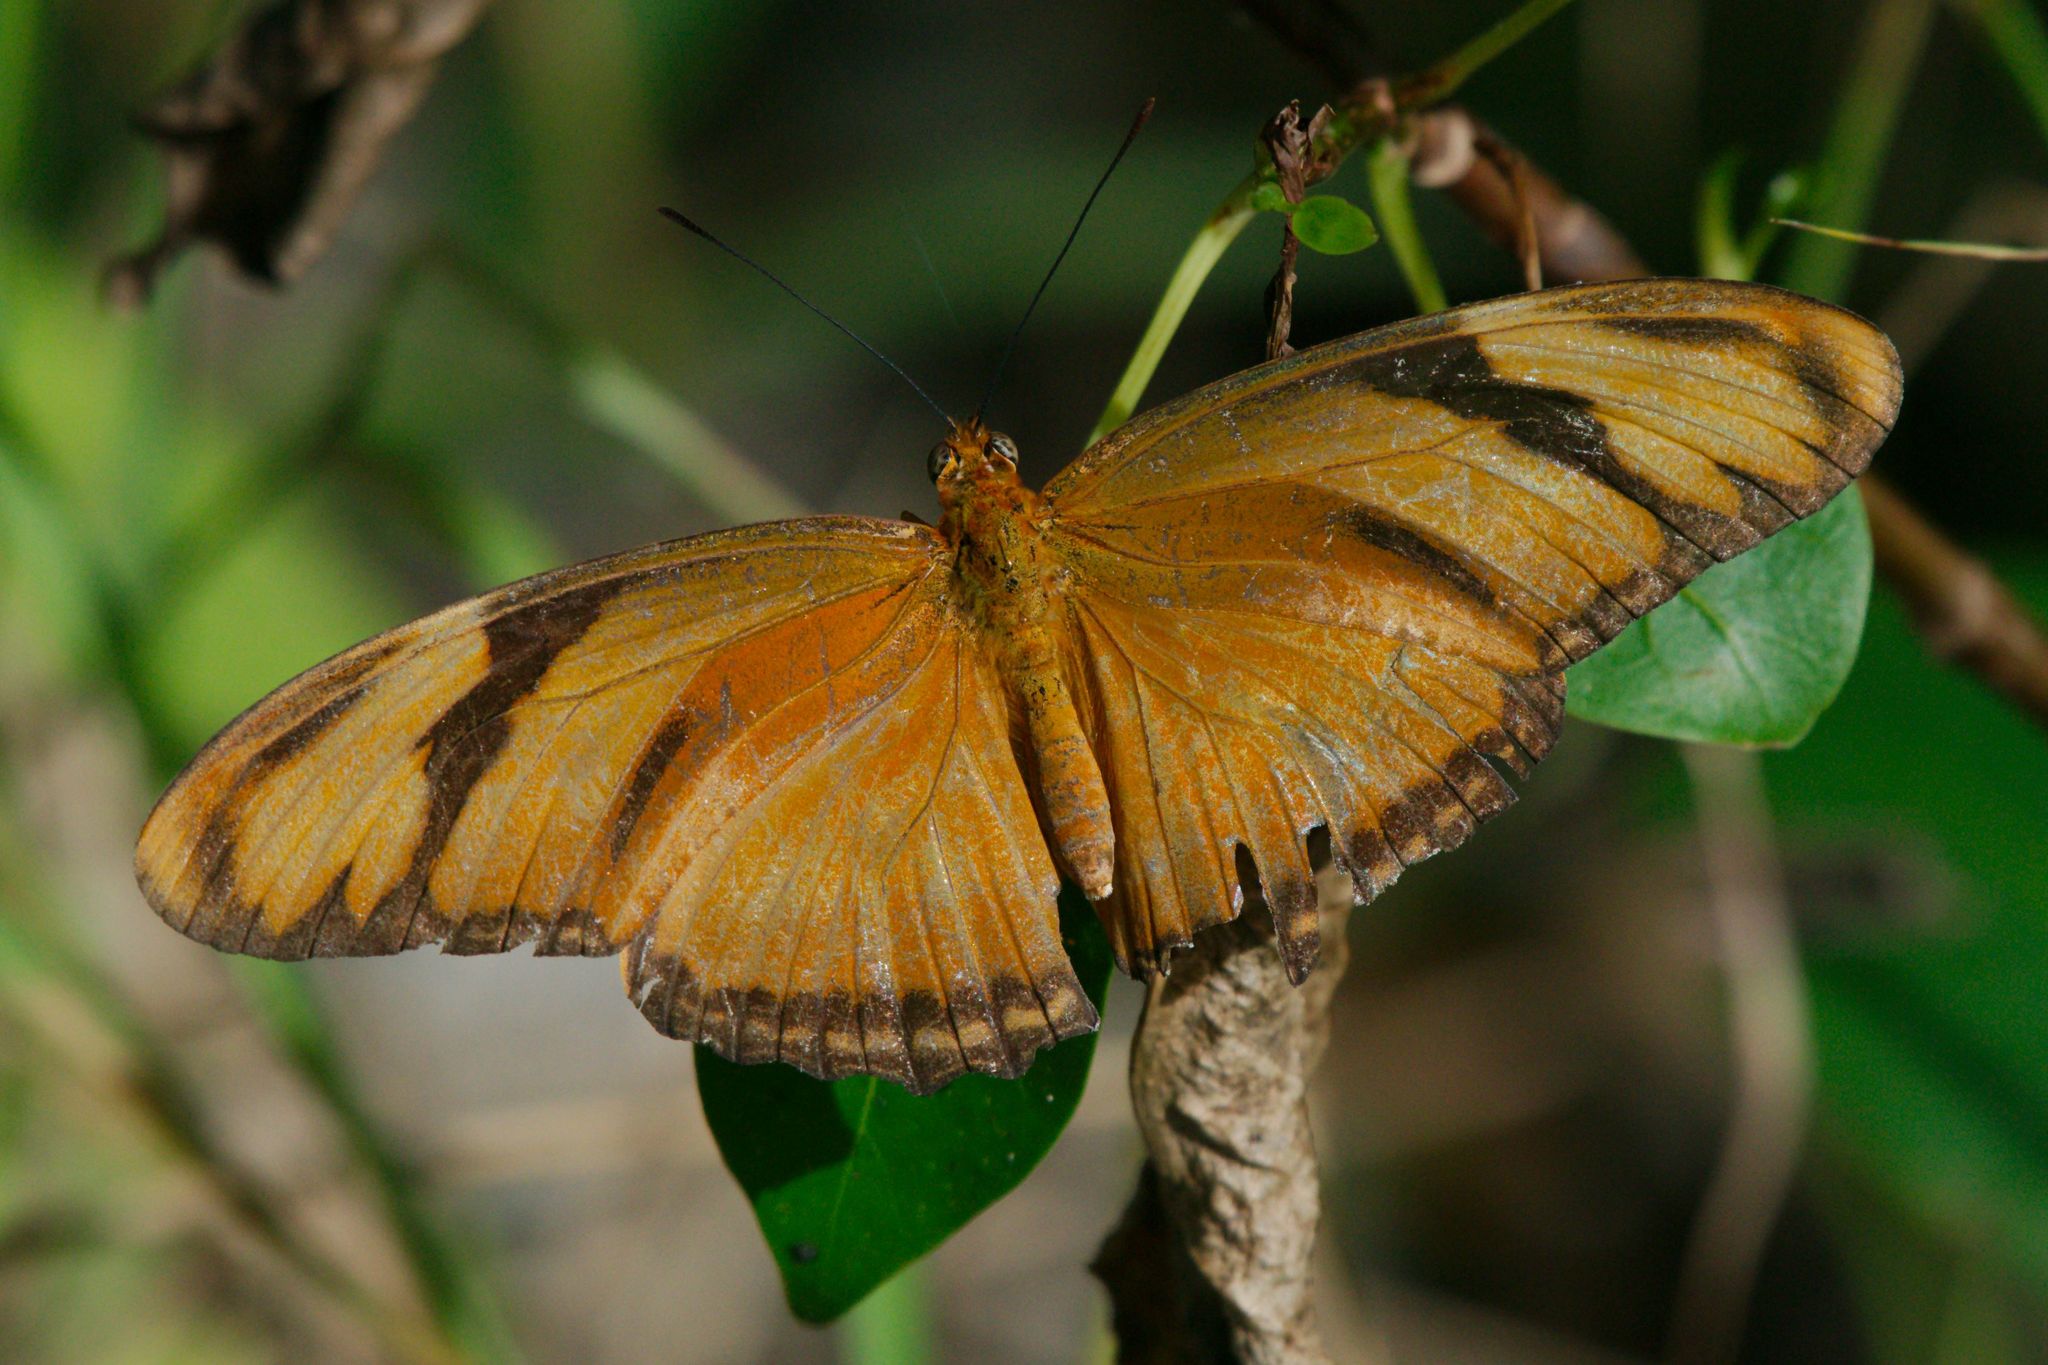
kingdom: Animalia
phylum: Arthropoda
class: Insecta
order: Lepidoptera
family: Nymphalidae
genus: Dryas
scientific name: Dryas iulia
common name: Flambeau
